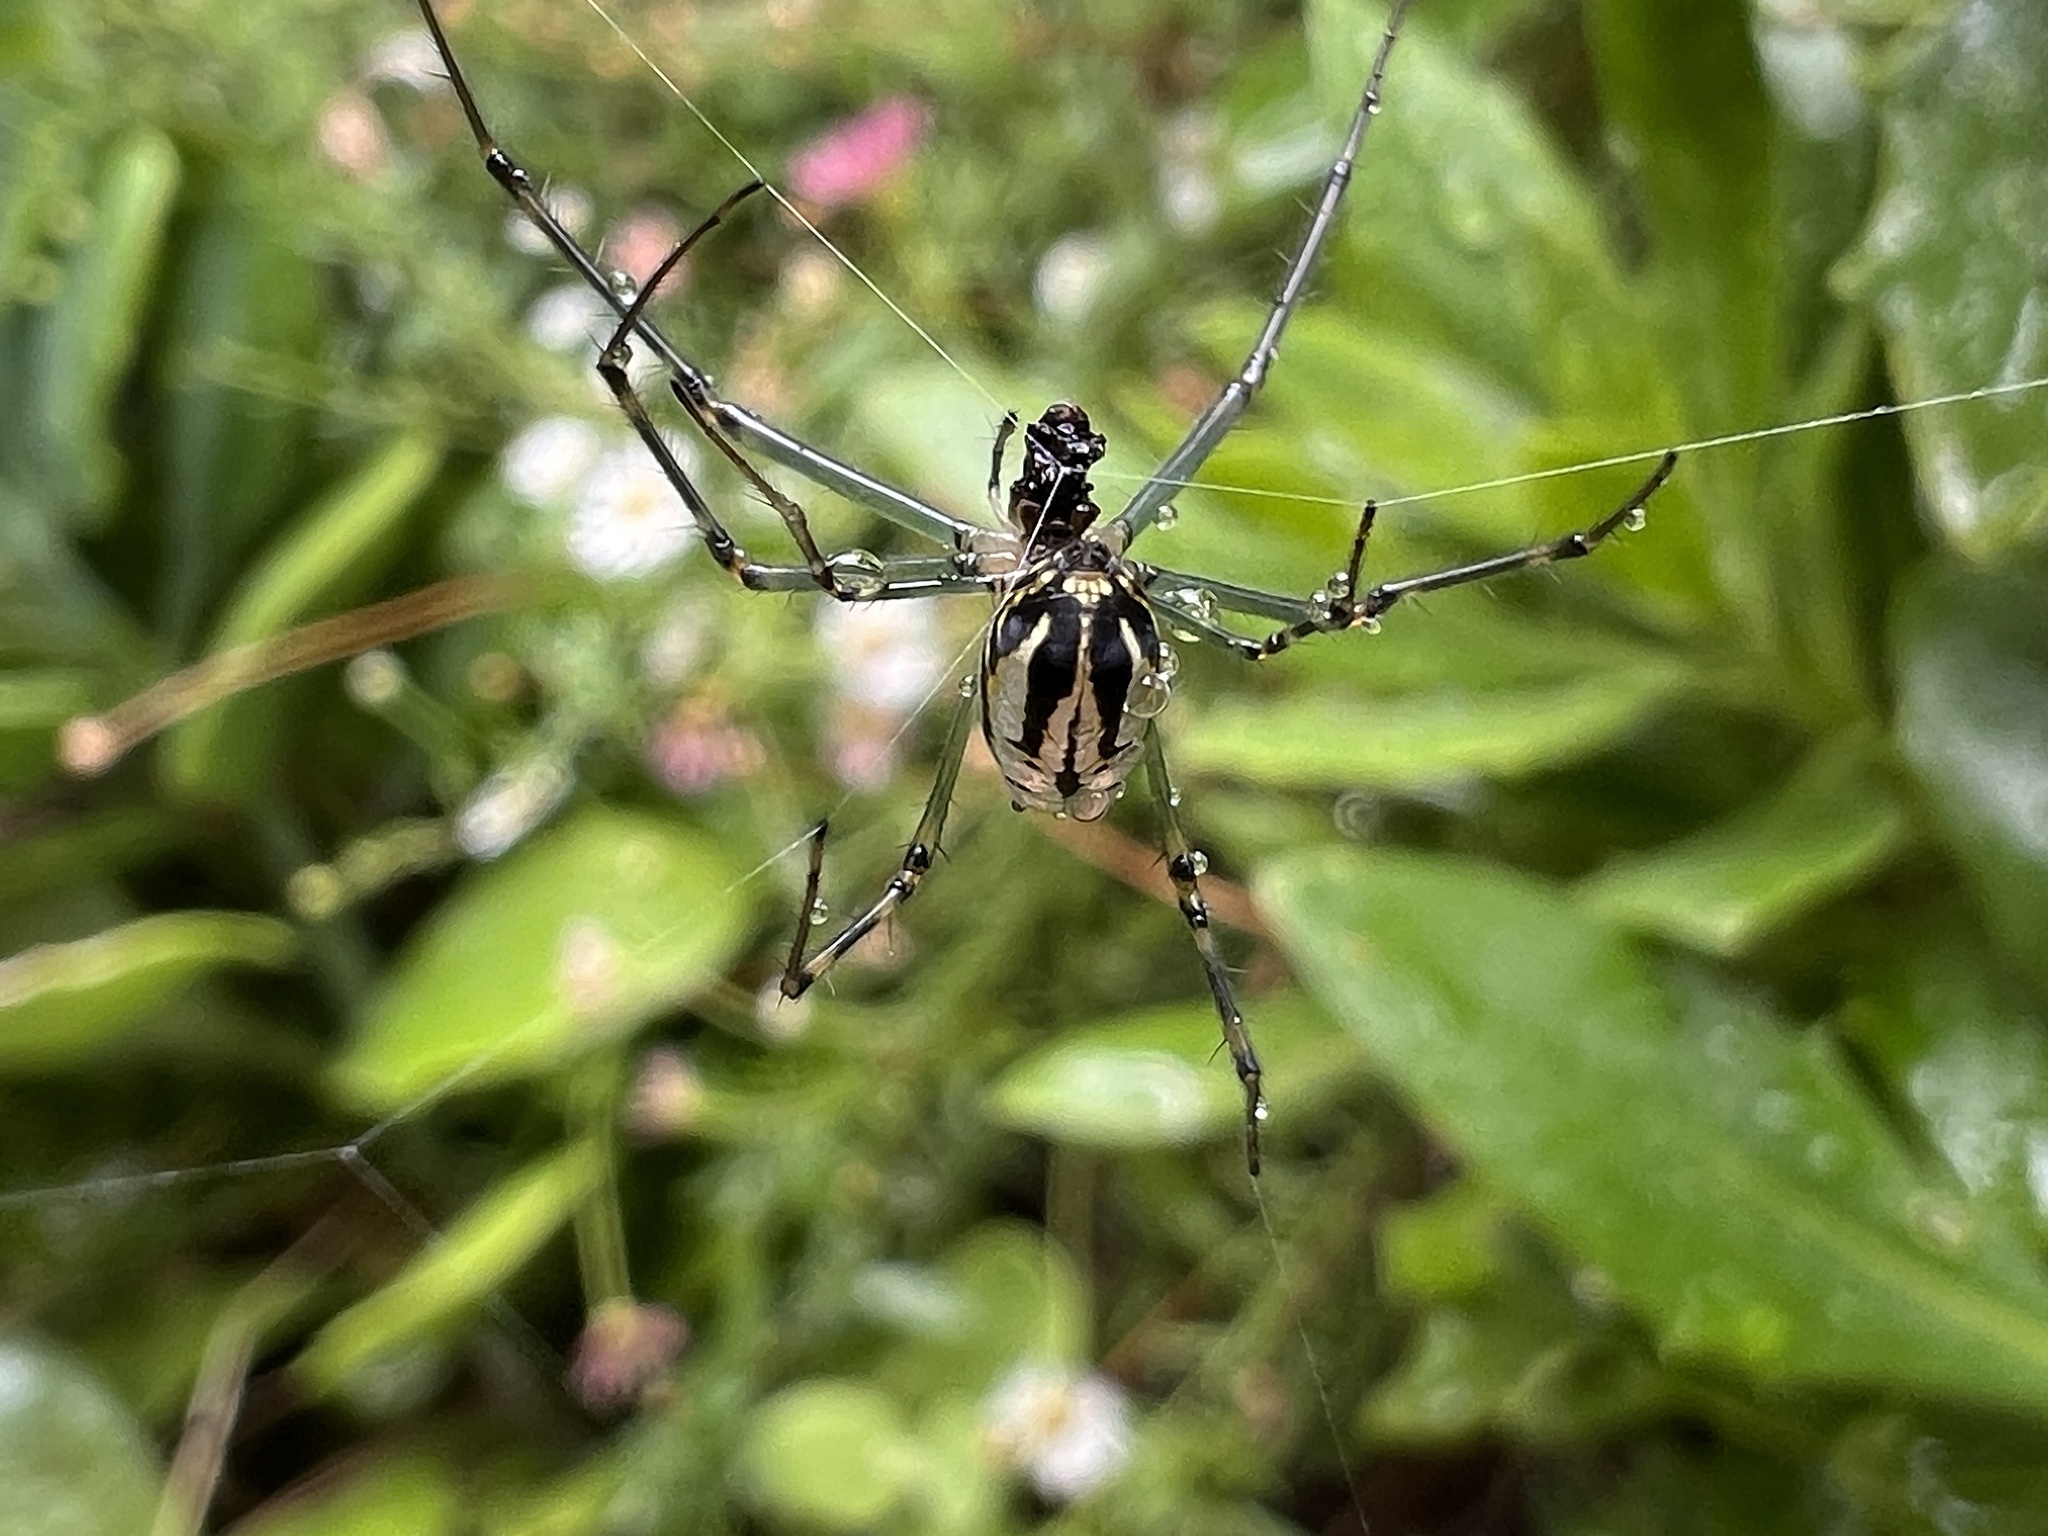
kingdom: Animalia
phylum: Arthropoda
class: Arachnida
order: Araneae
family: Tetragnathidae
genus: Leucauge
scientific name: Leucauge dromedaria
